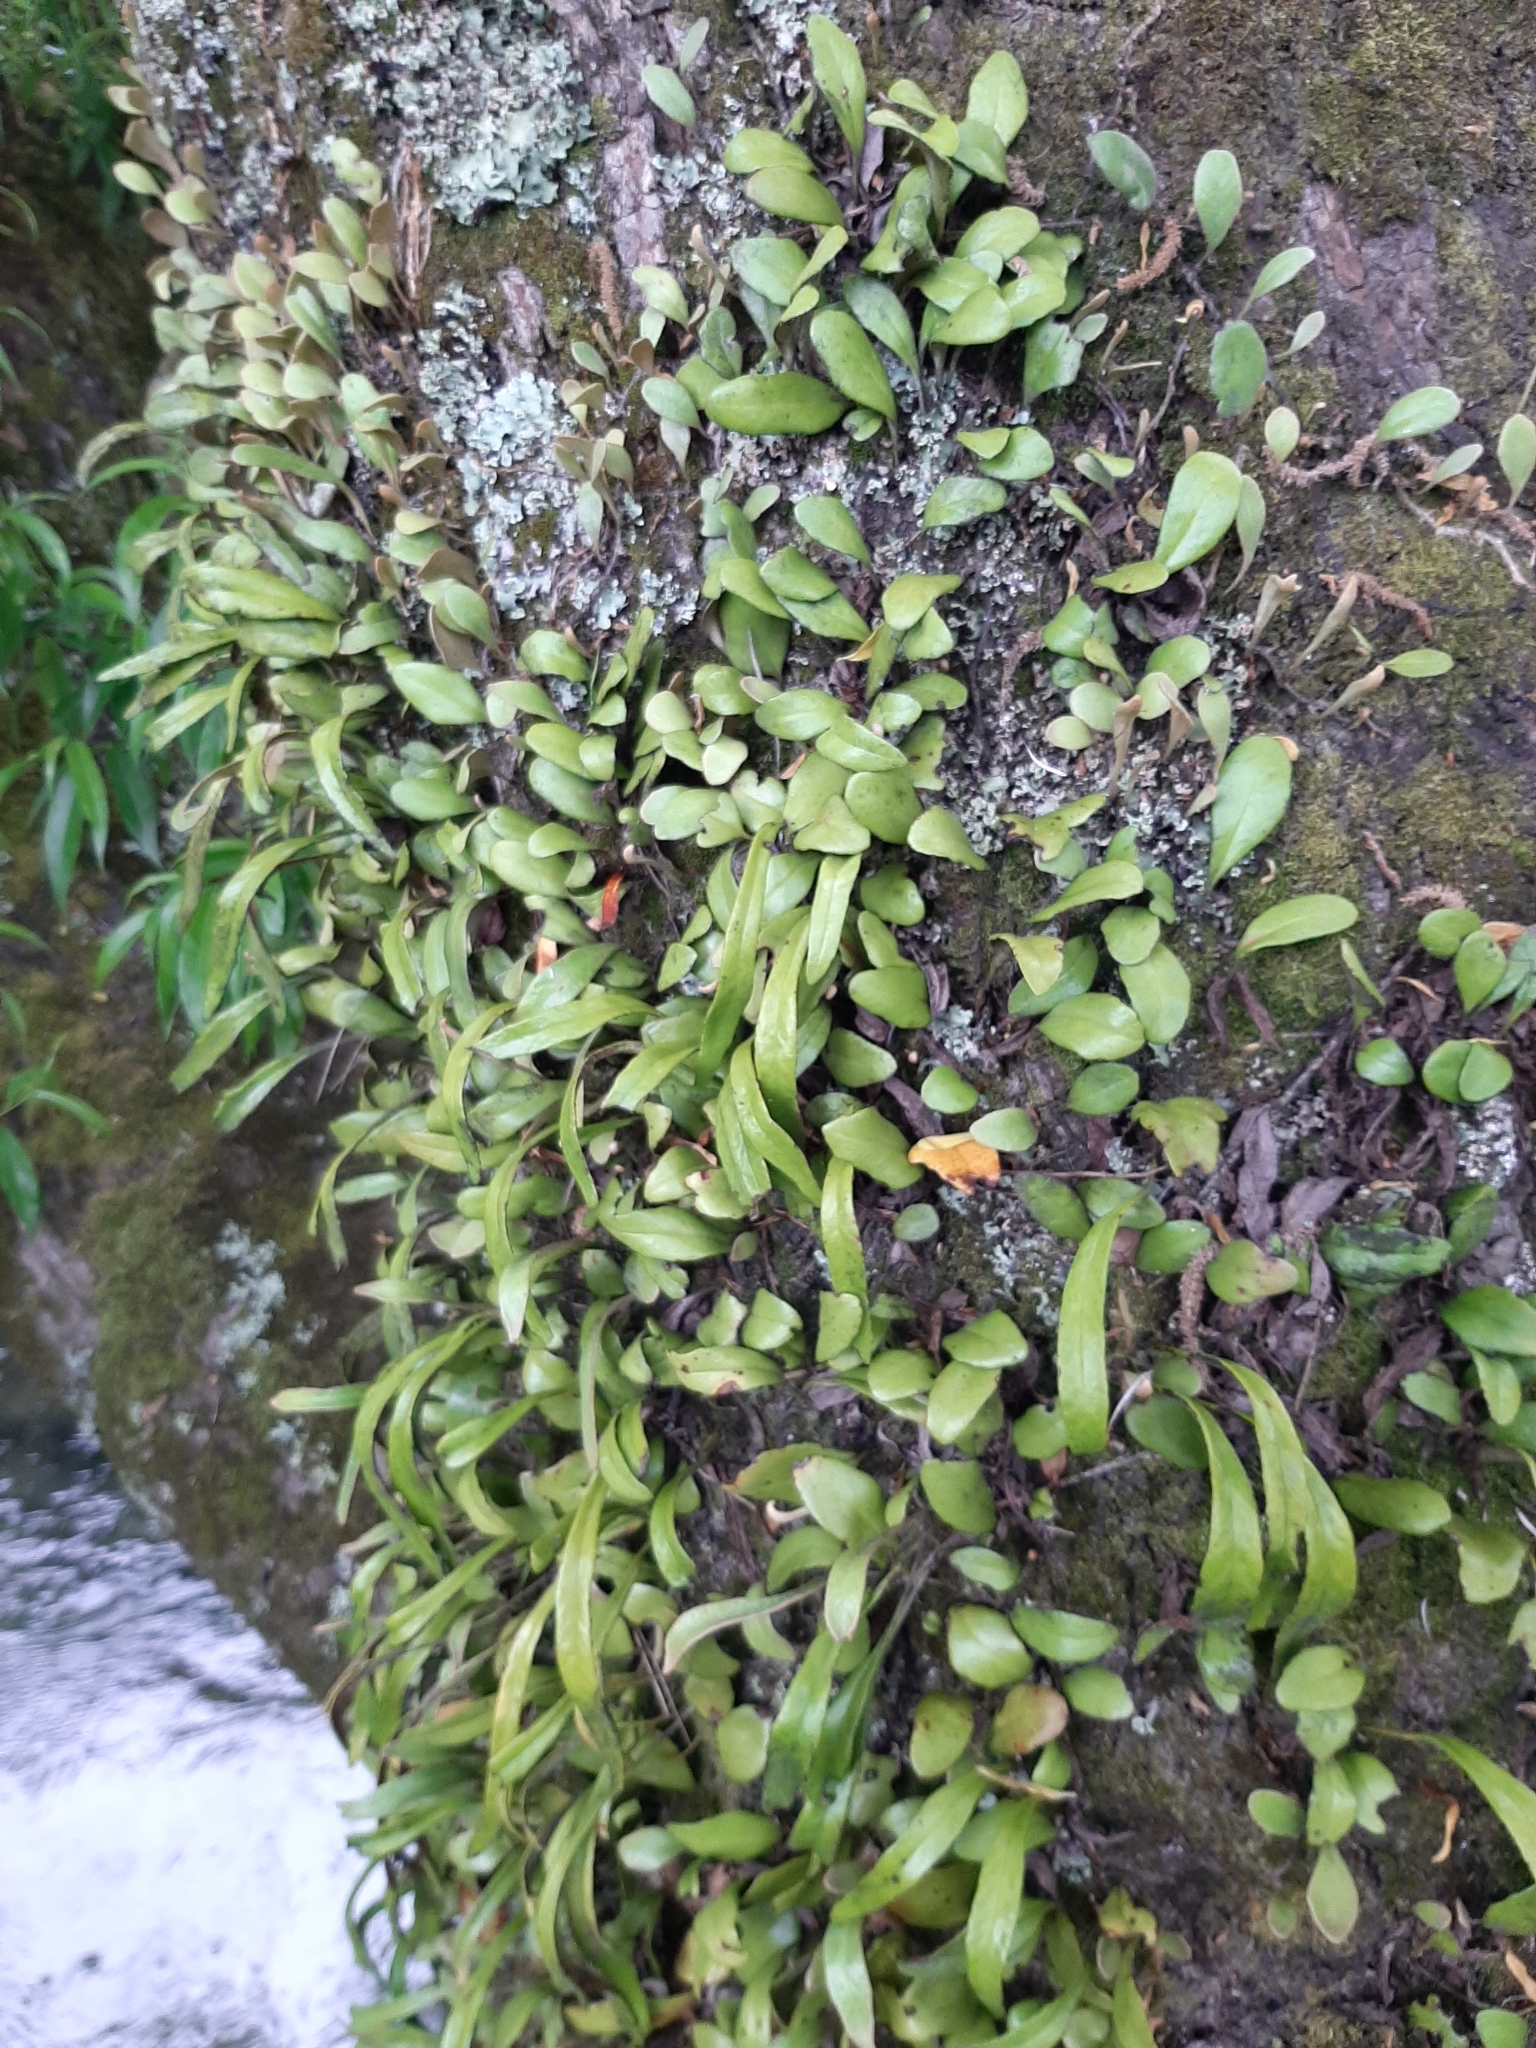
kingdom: Plantae
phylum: Tracheophyta
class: Polypodiopsida
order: Polypodiales
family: Polypodiaceae
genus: Pyrrosia
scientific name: Pyrrosia eleagnifolia
